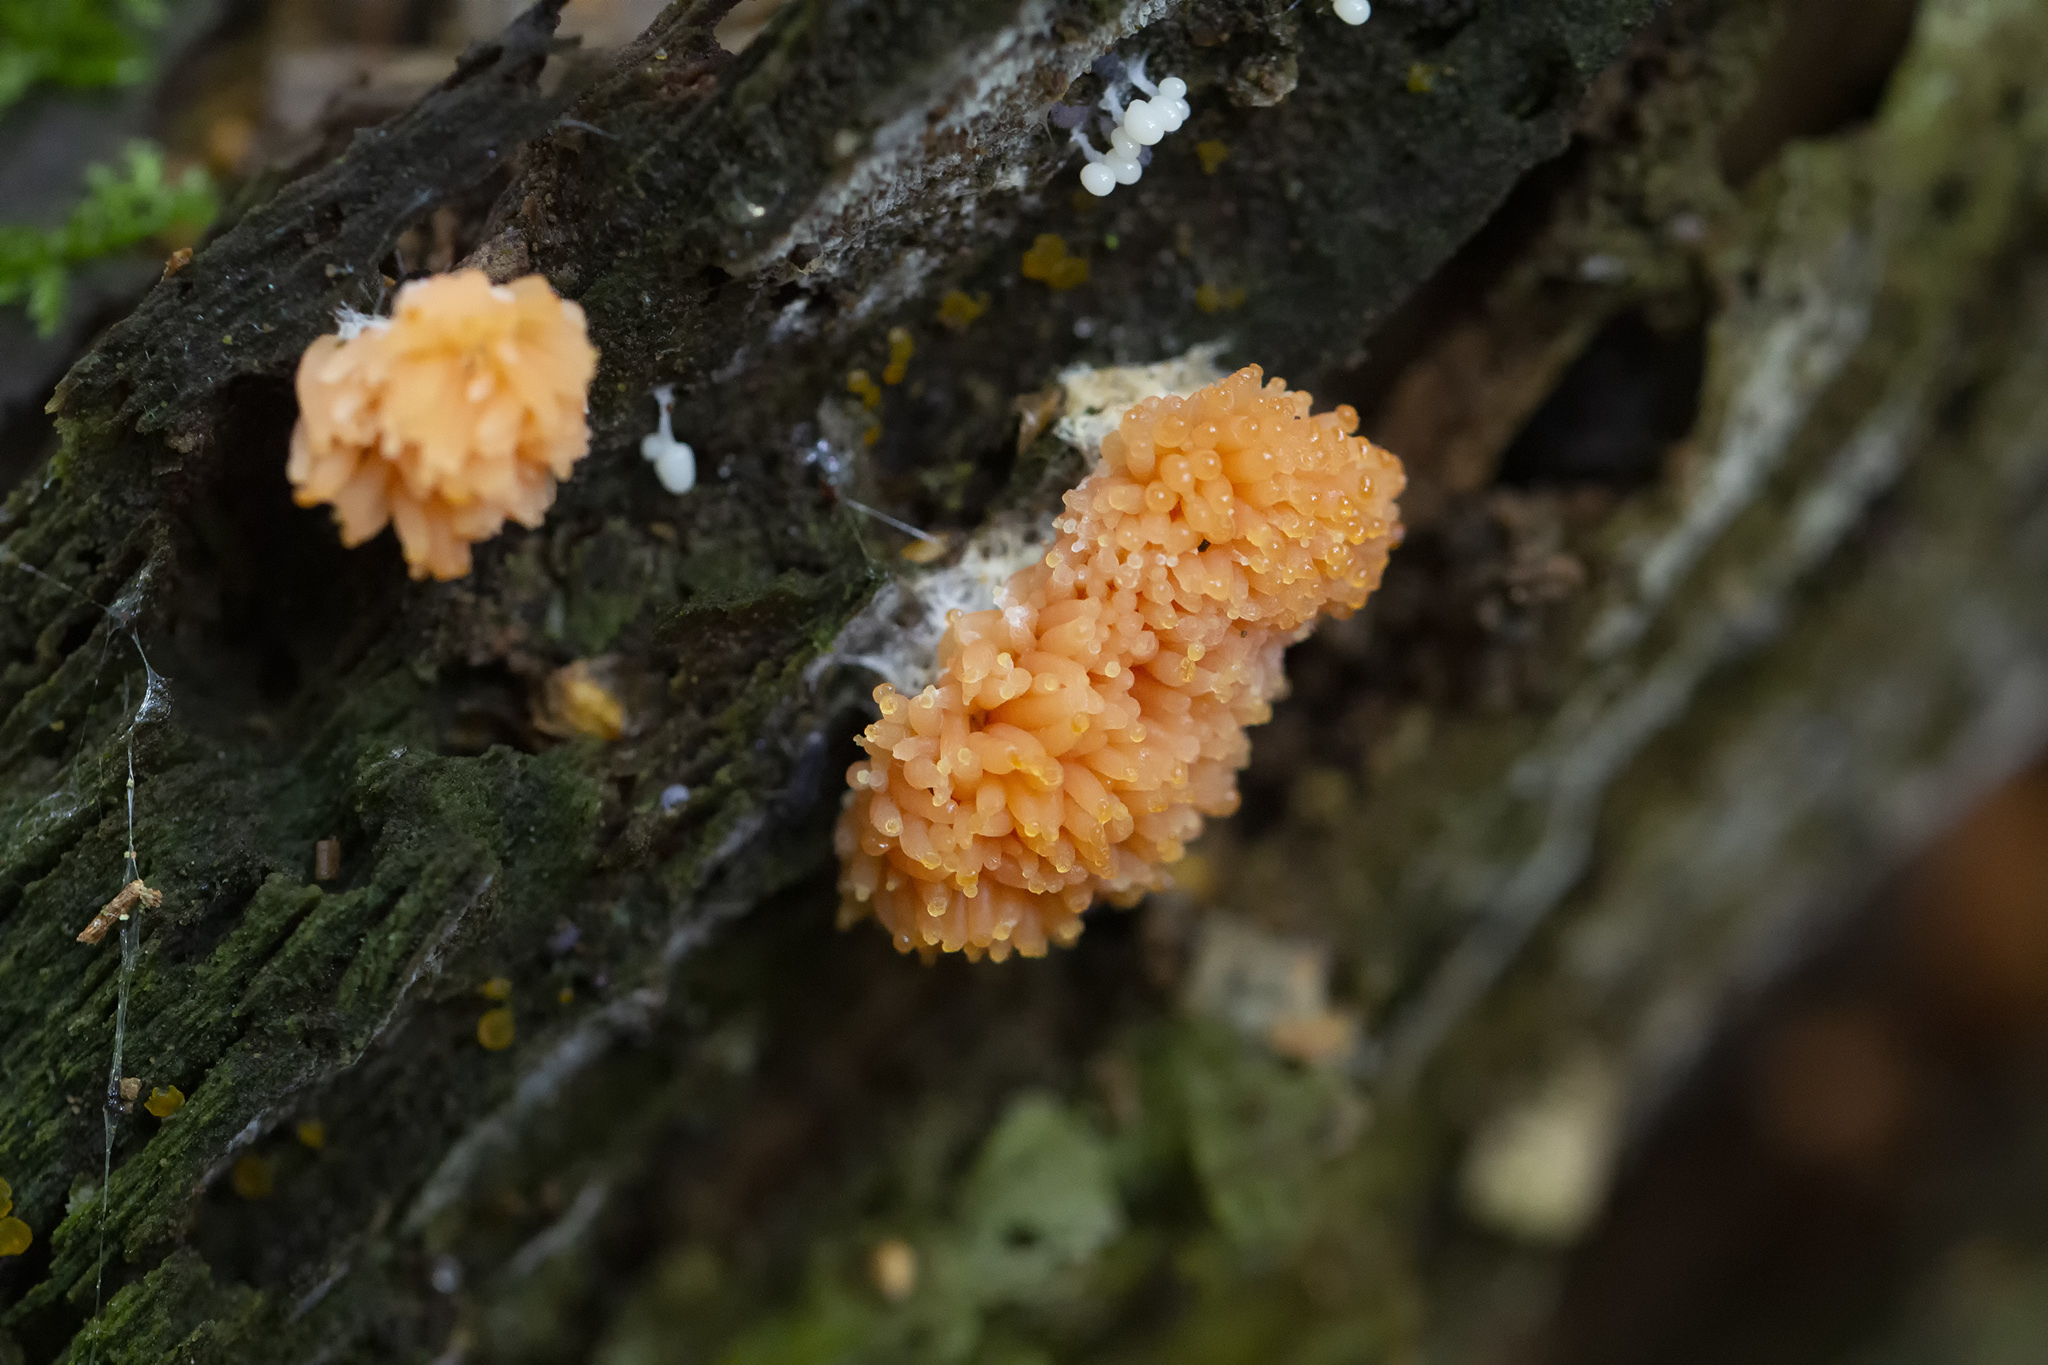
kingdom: Protozoa
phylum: Mycetozoa
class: Myxomycetes
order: Cribrariales
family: Tubiferaceae
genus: Tubifera
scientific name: Tubifera ferruginosa
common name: Red raspberry slime mold
